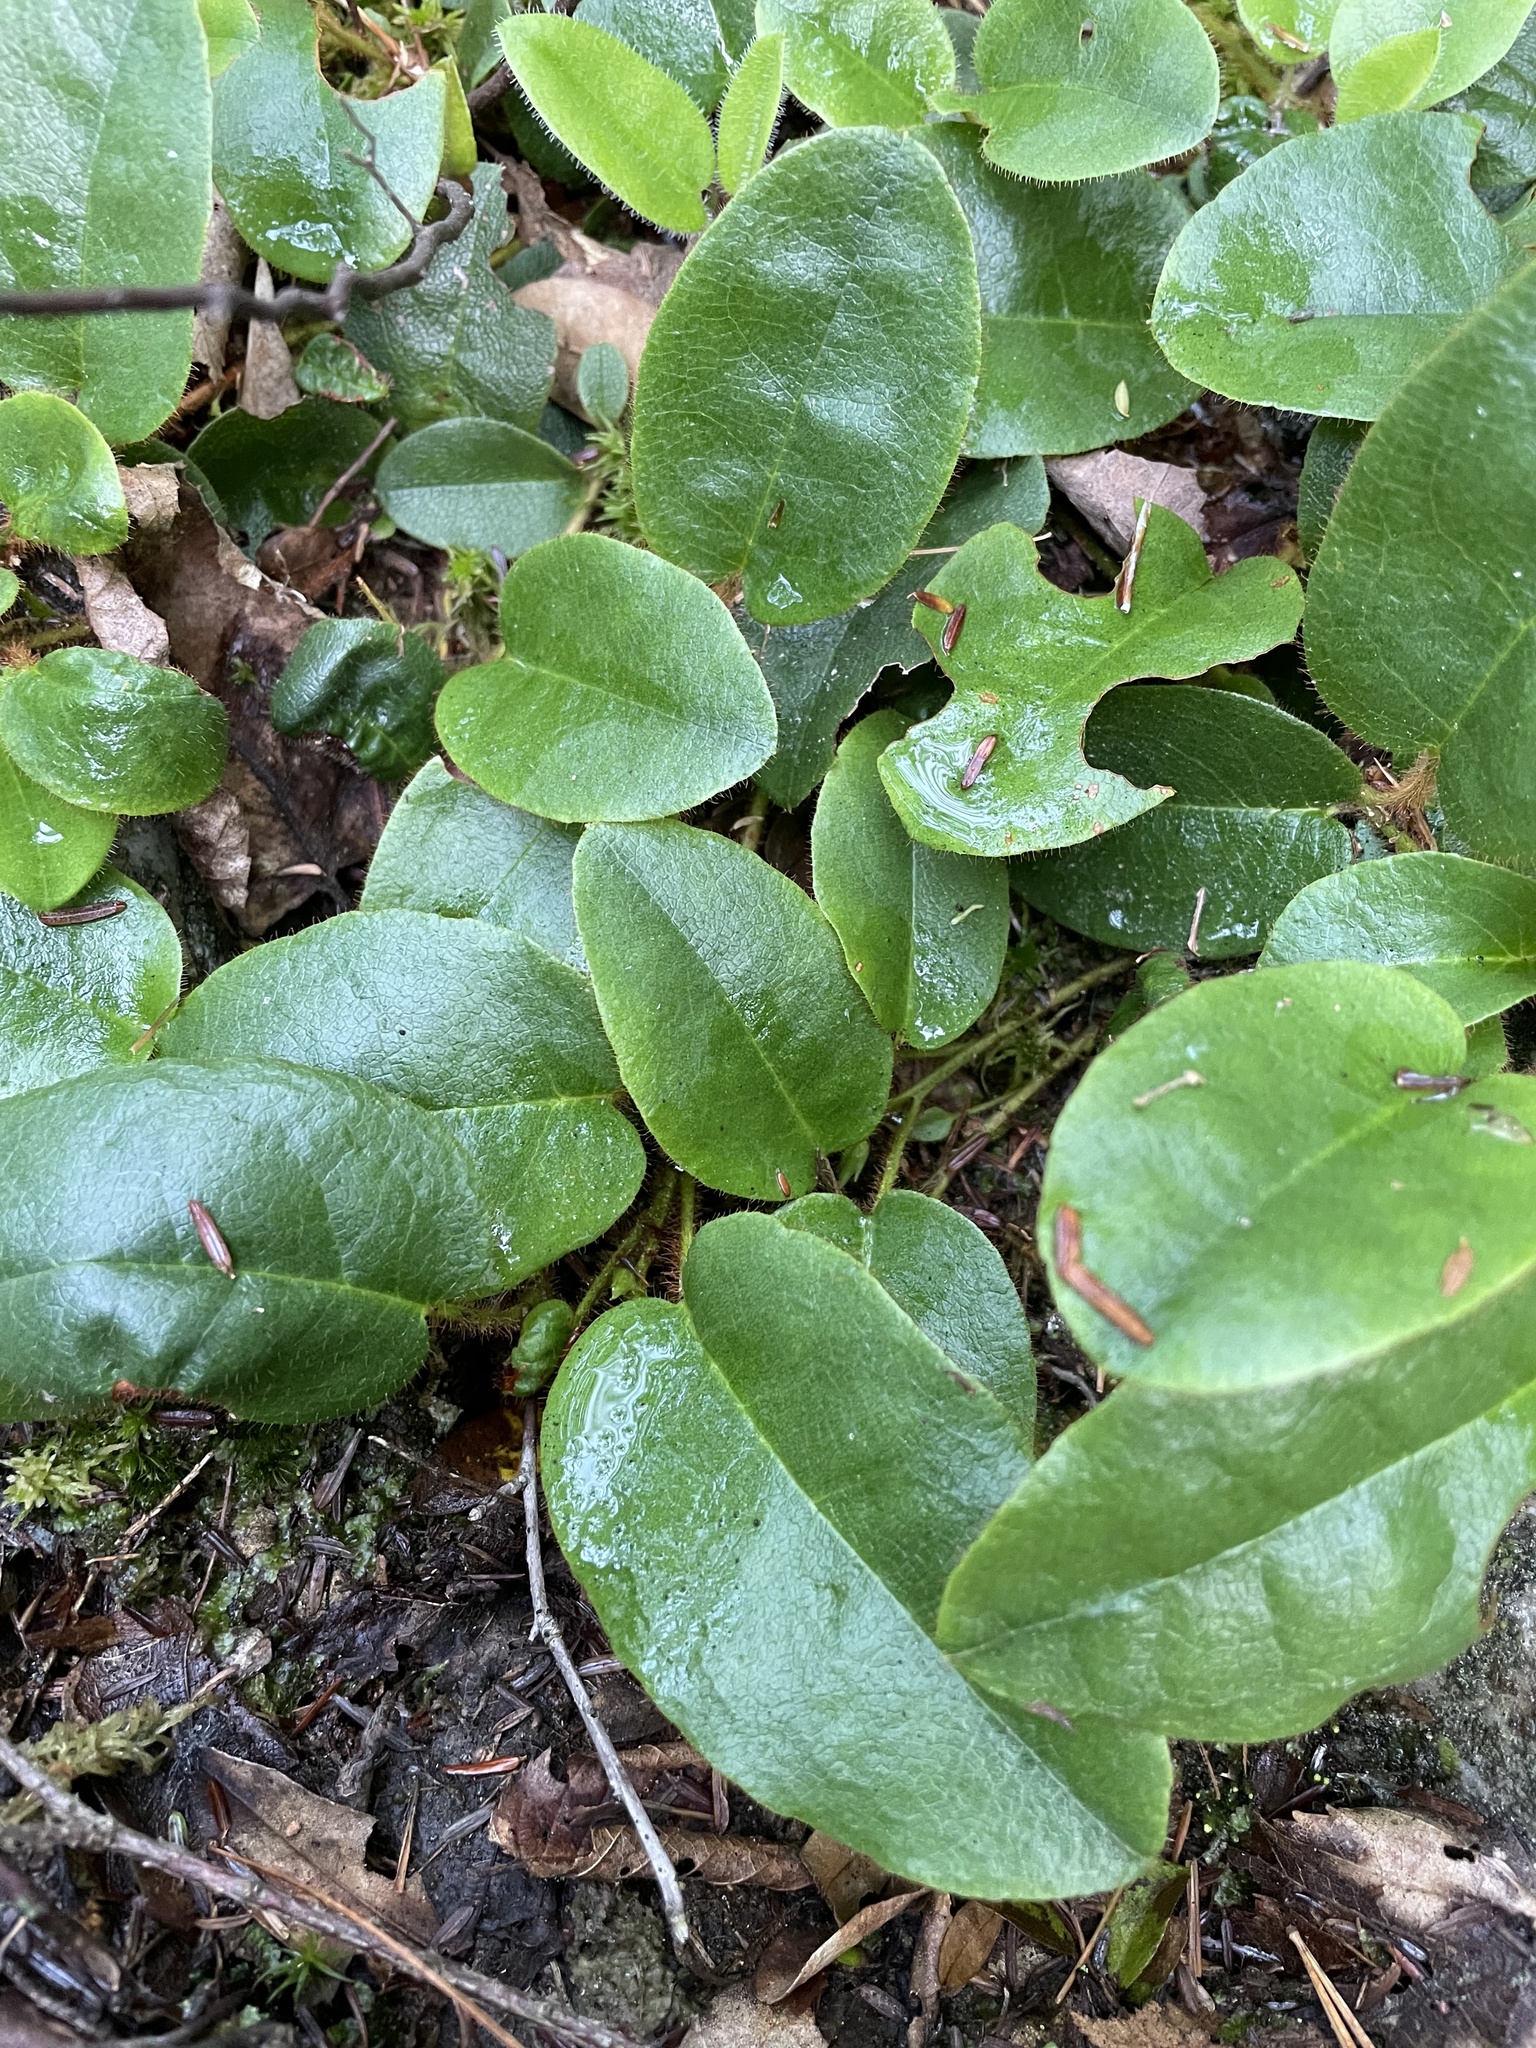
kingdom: Plantae
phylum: Tracheophyta
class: Magnoliopsida
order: Ericales
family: Ericaceae
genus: Epigaea
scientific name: Epigaea repens
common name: Gravelroot
